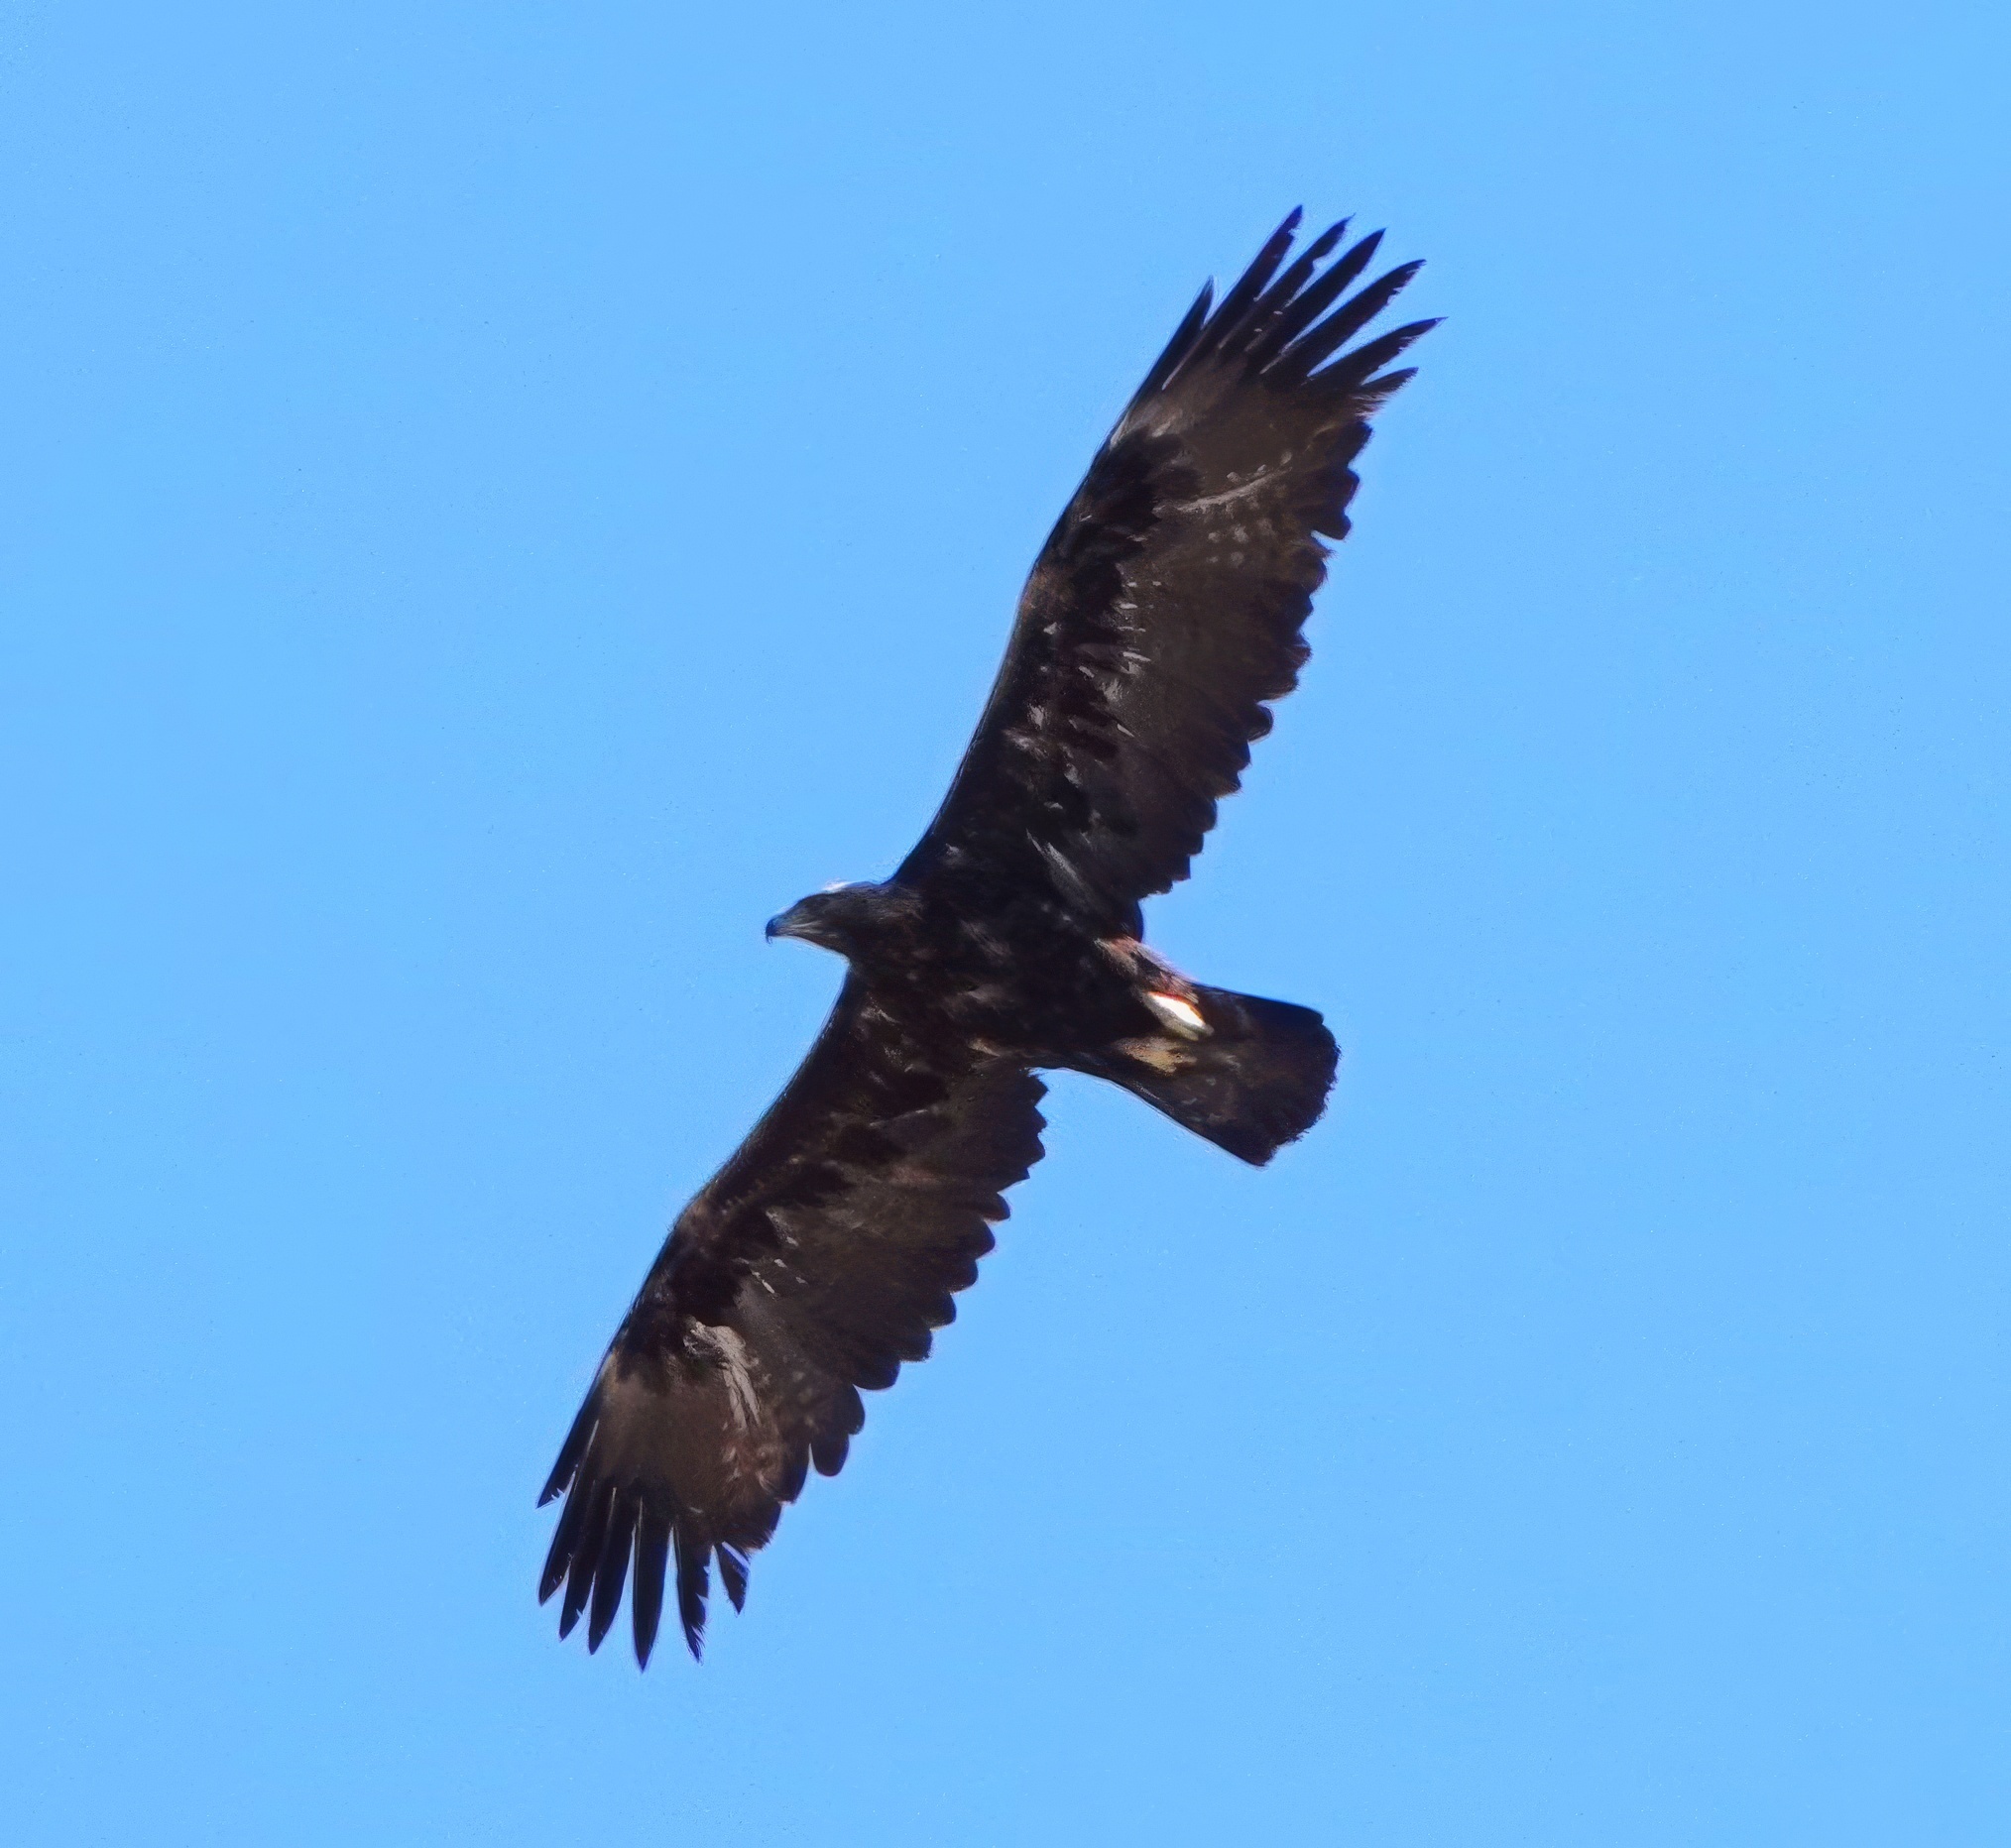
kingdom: Animalia
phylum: Chordata
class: Aves
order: Accipitriformes
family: Accipitridae
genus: Aquila
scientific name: Aquila chrysaetos
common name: Golden eagle
